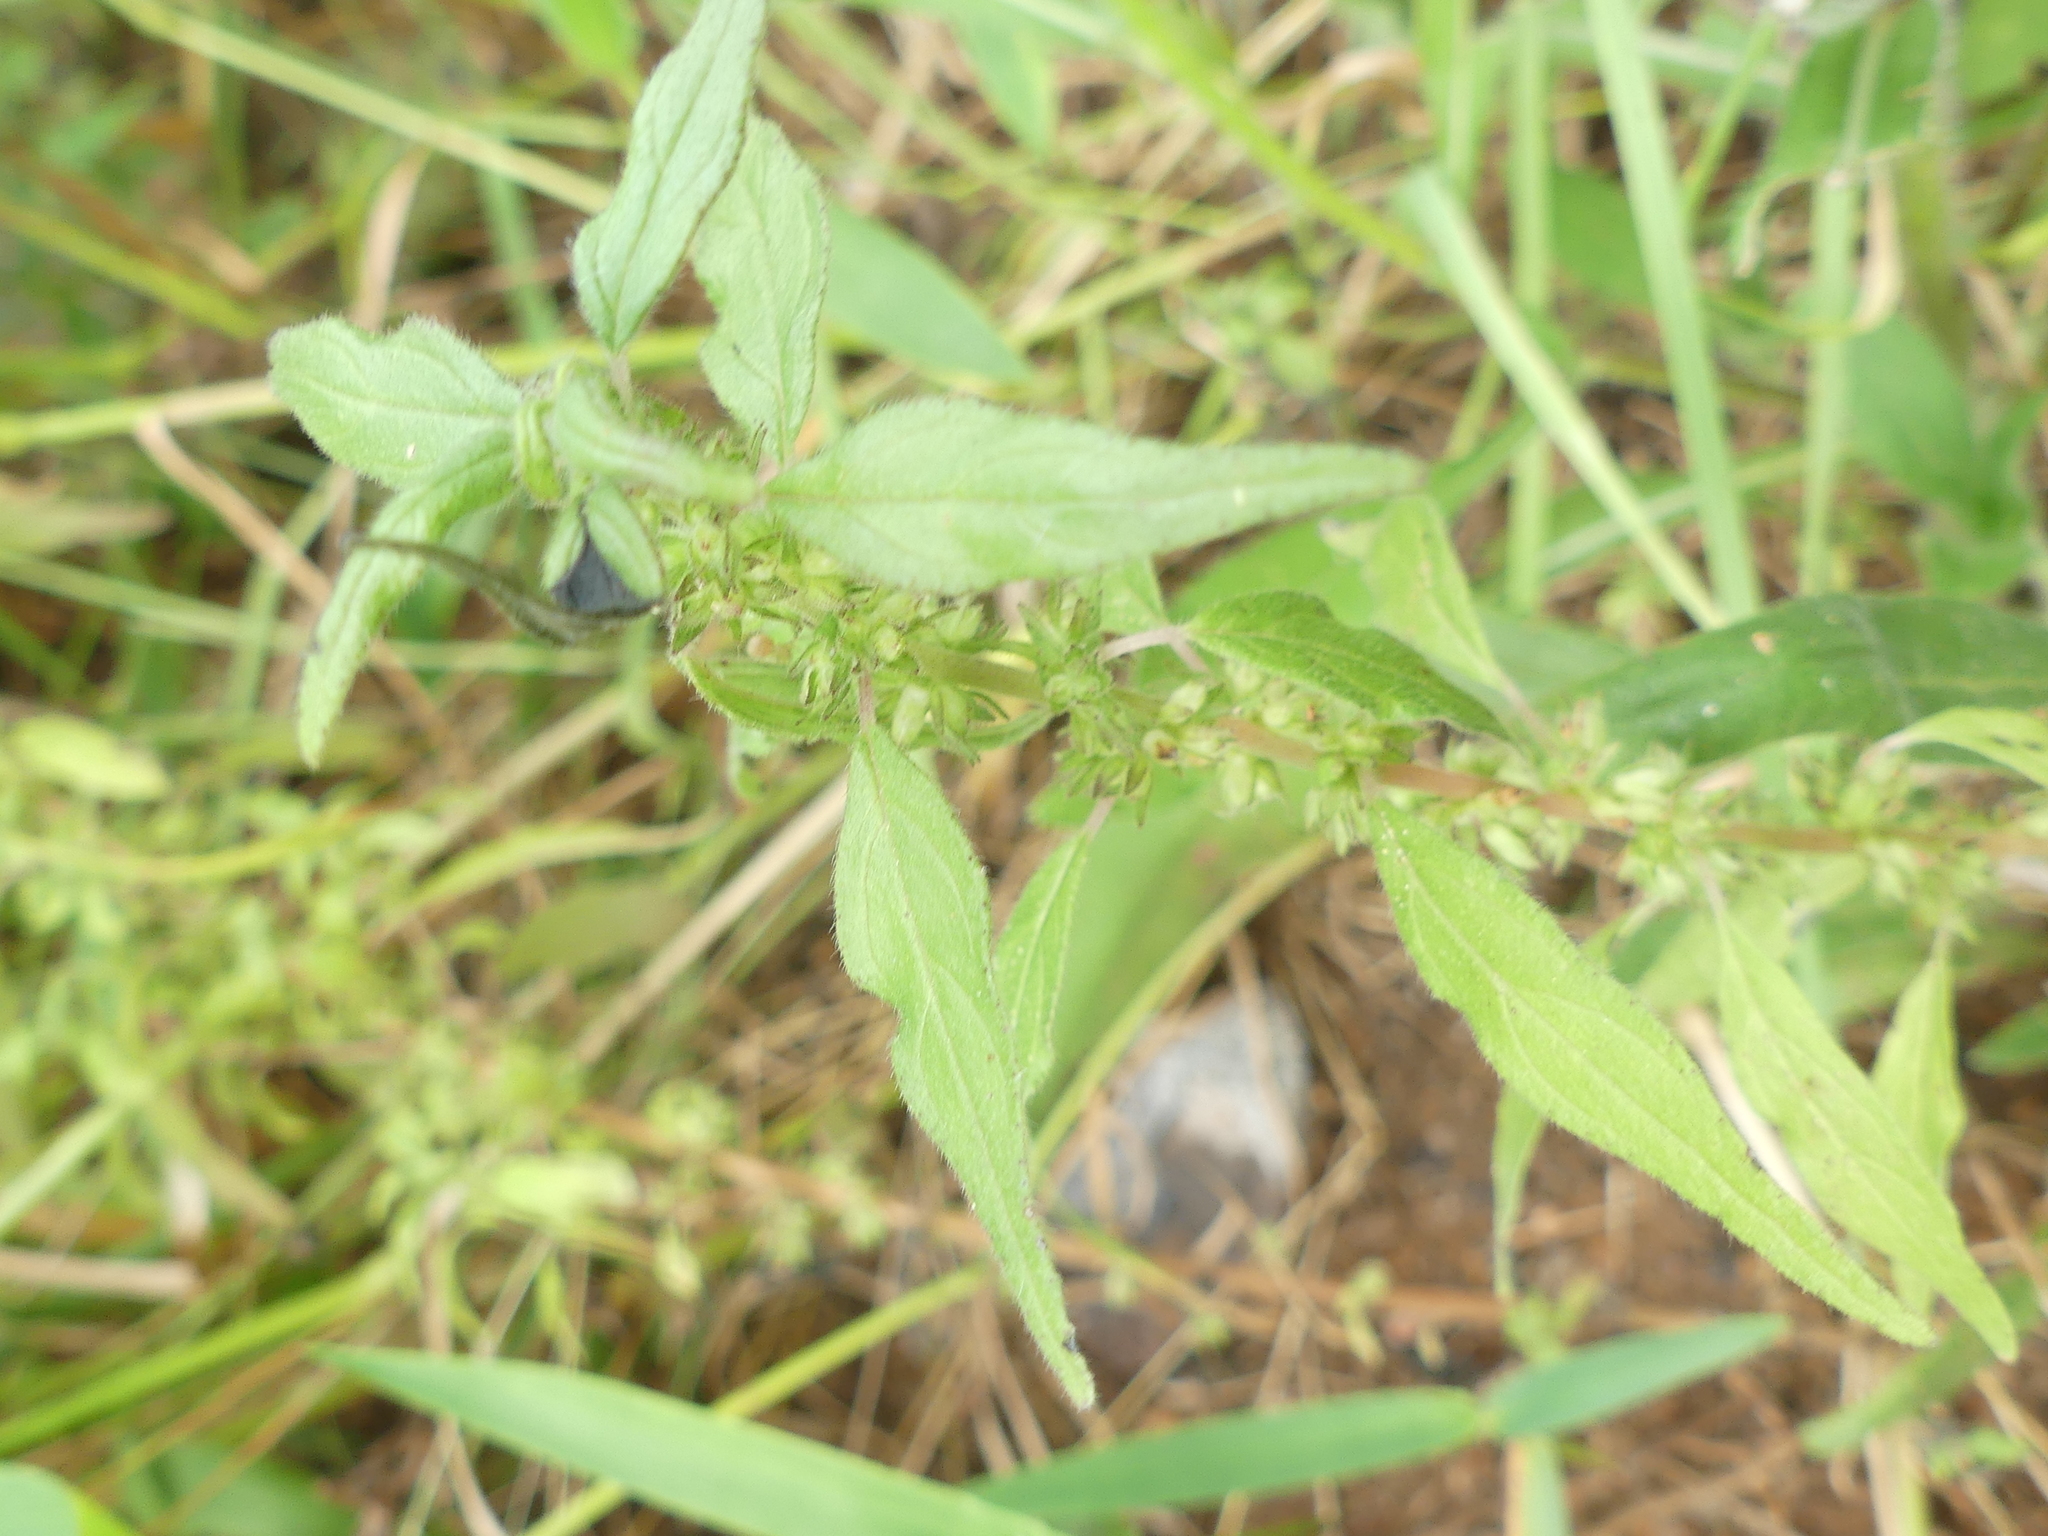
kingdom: Plantae
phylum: Tracheophyta
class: Magnoliopsida
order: Rosales
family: Urticaceae
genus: Parietaria
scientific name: Parietaria pensylvanica
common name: Pennsylvania pellitory
